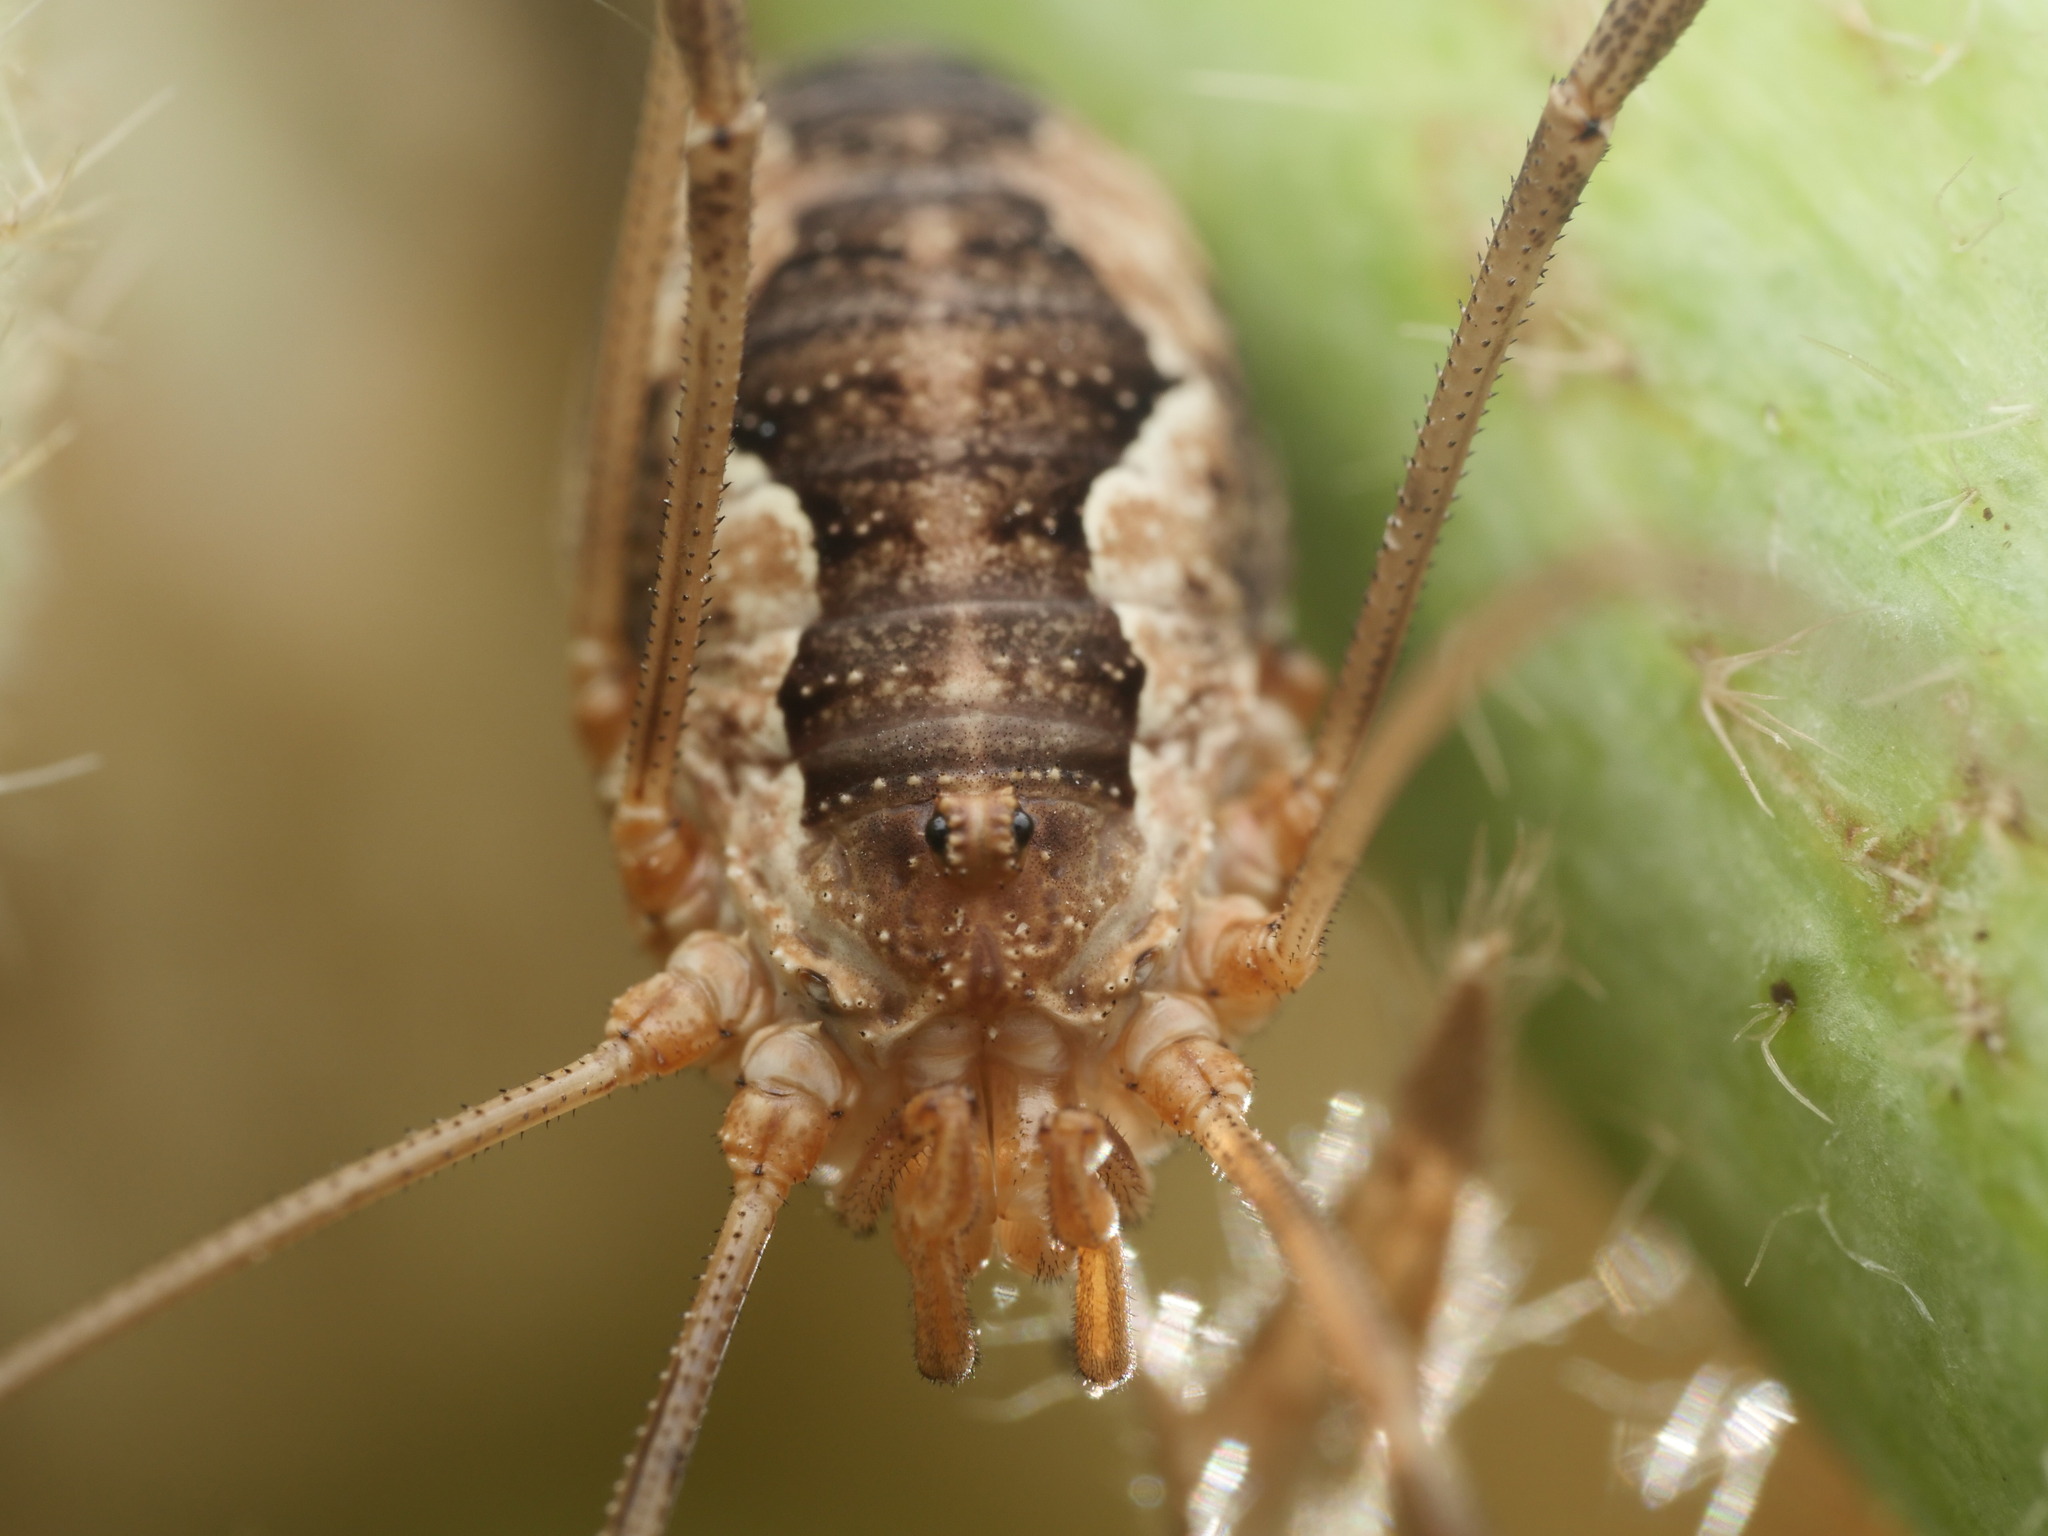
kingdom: Animalia
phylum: Arthropoda
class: Arachnida
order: Opiliones
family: Phalangiidae
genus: Phalangium
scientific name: Phalangium opilio
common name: Daddy longleg
